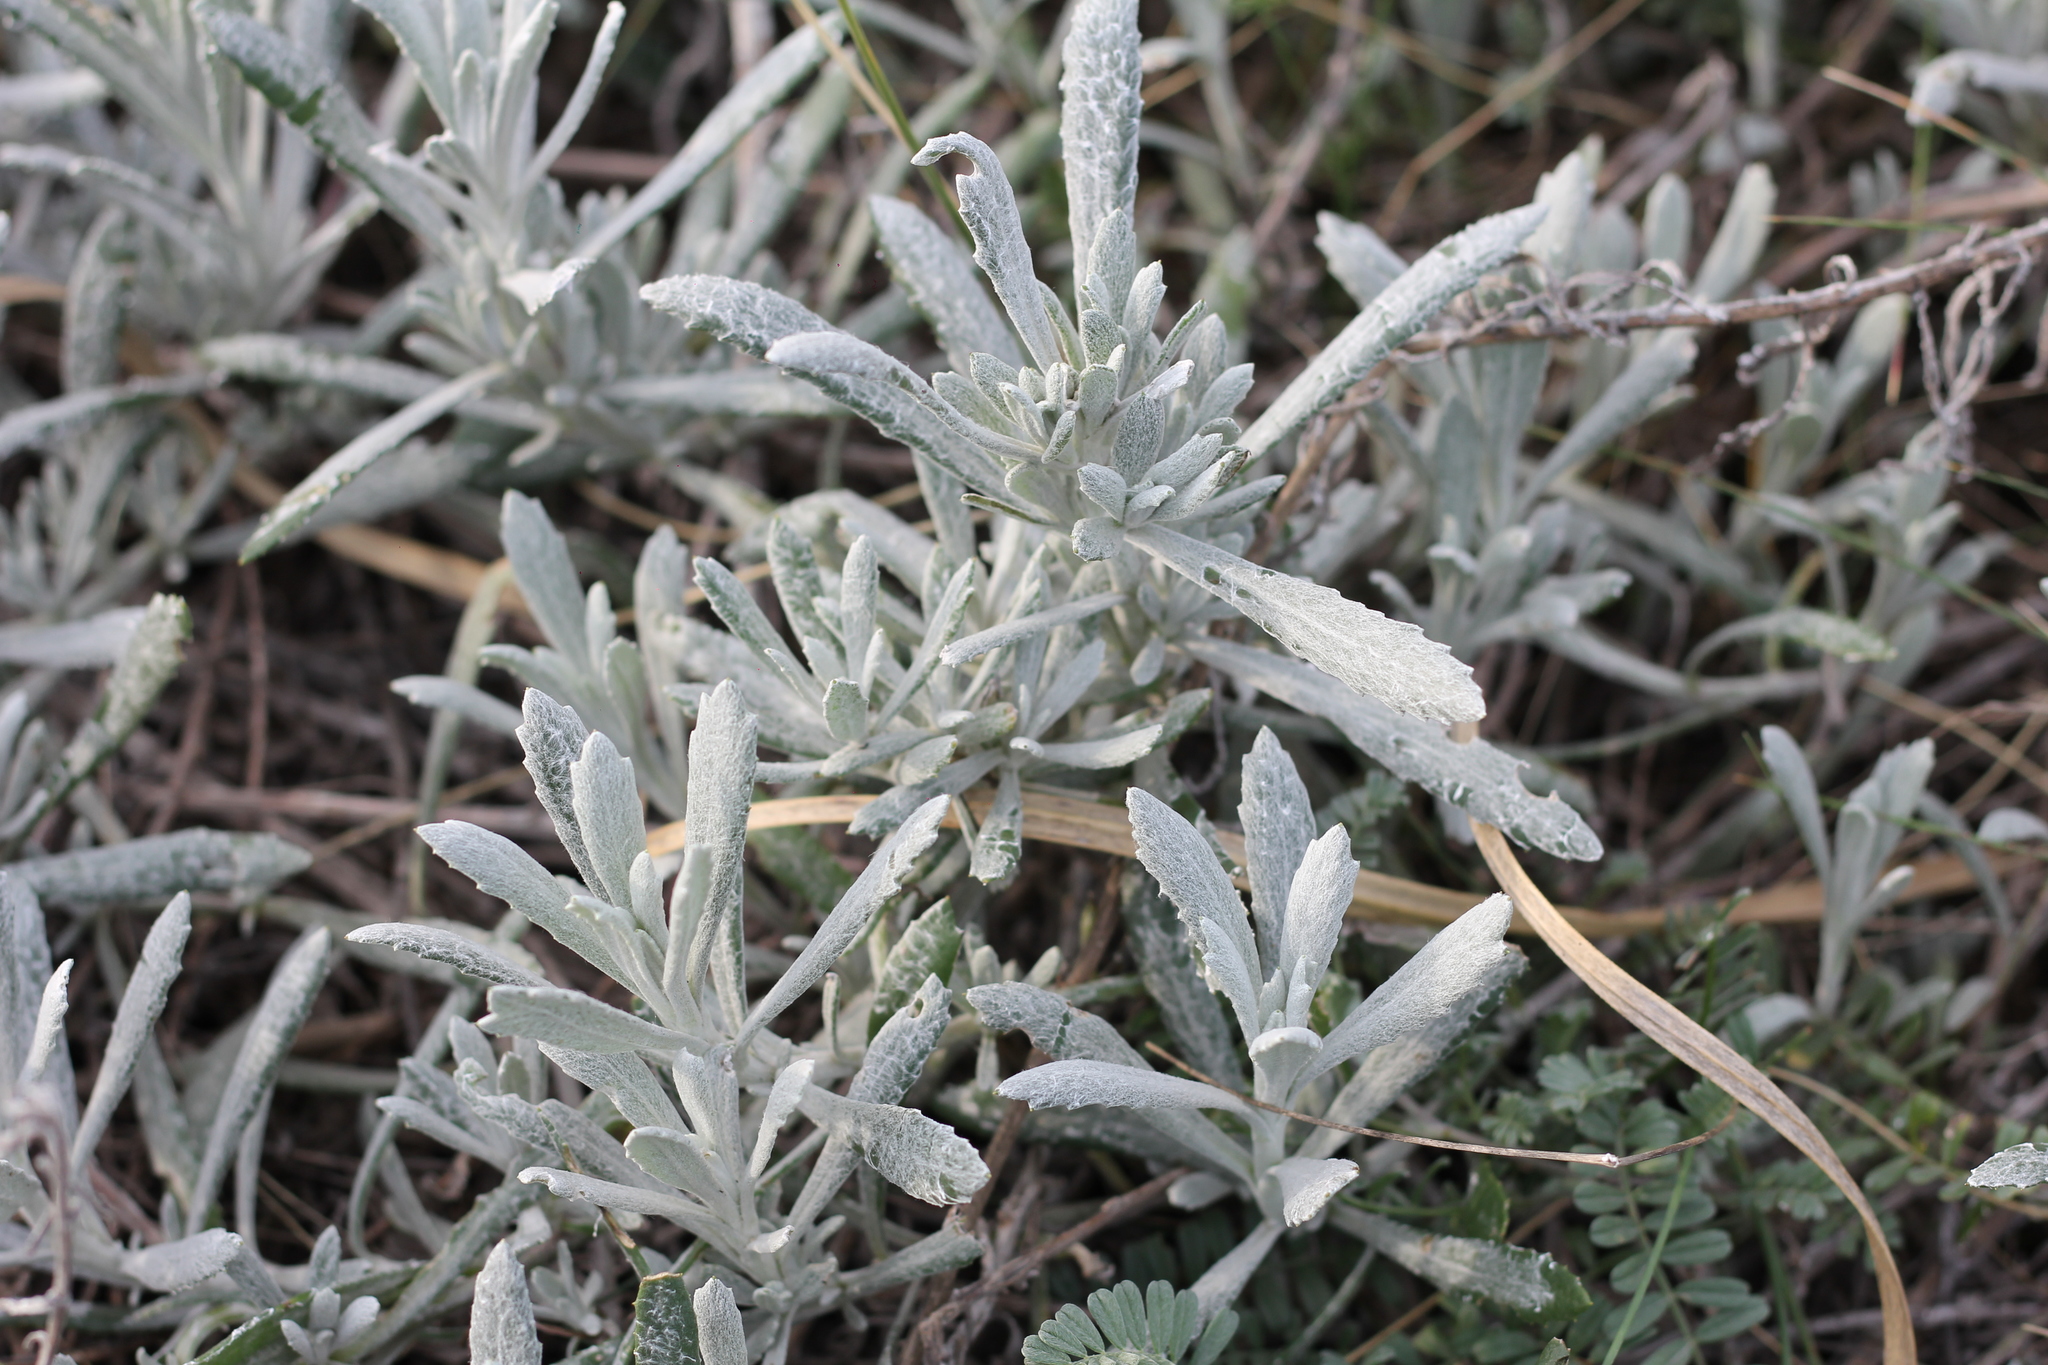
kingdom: Plantae
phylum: Tracheophyta
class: Magnoliopsida
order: Asterales
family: Asteraceae
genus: Senecio
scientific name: Senecio crassiflorus
